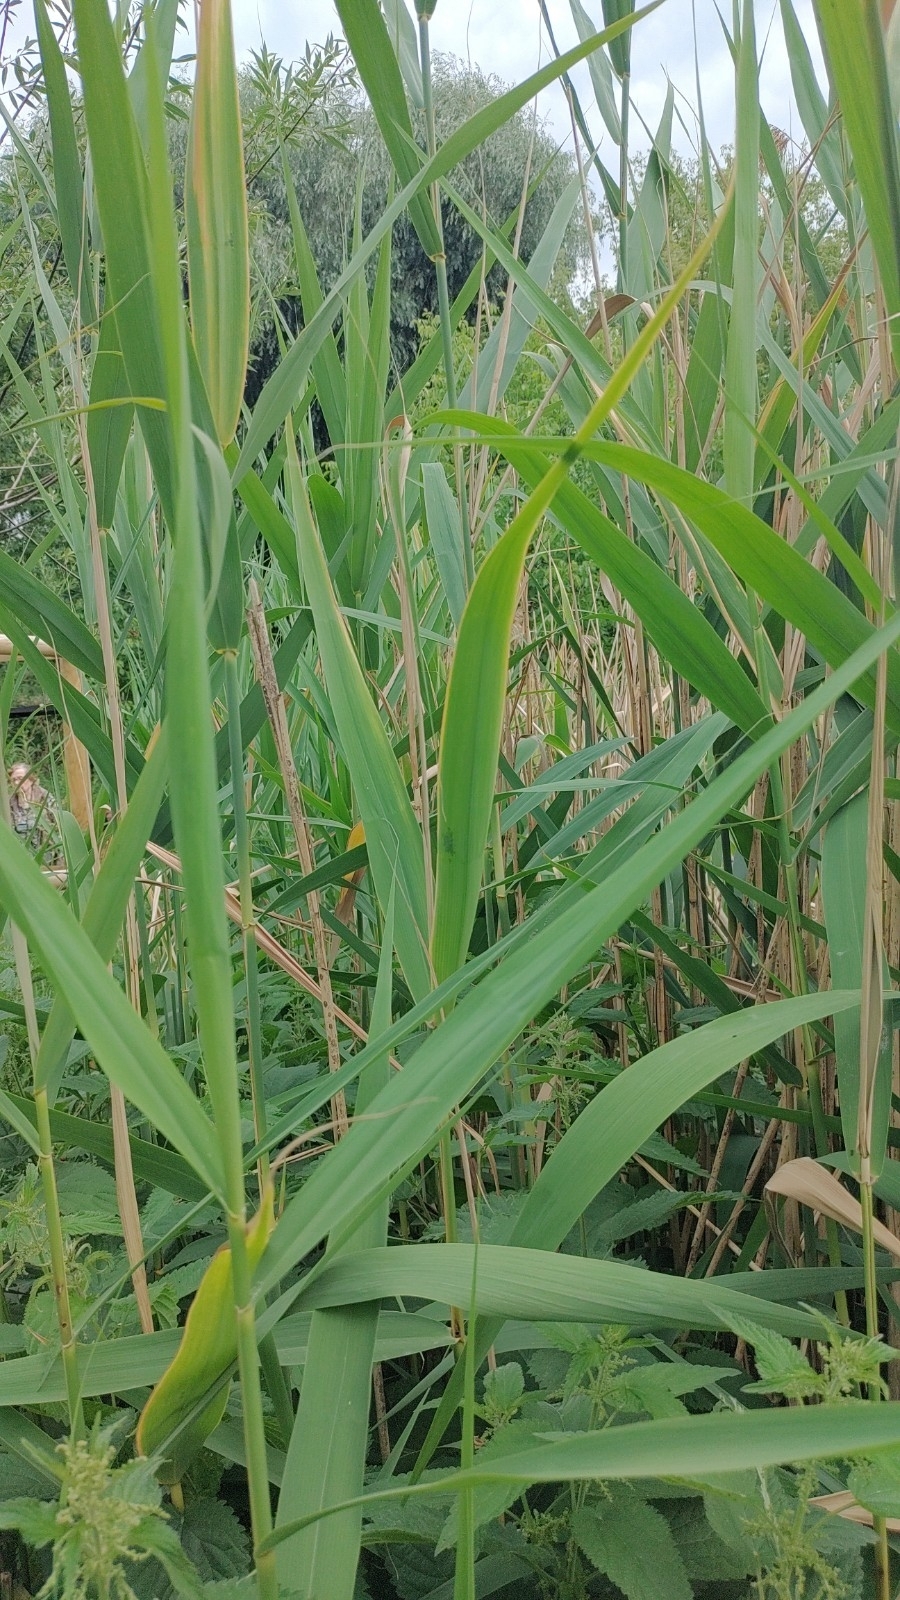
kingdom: Plantae
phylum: Tracheophyta
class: Liliopsida
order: Poales
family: Poaceae
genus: Phragmites
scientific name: Phragmites australis
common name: Common reed
